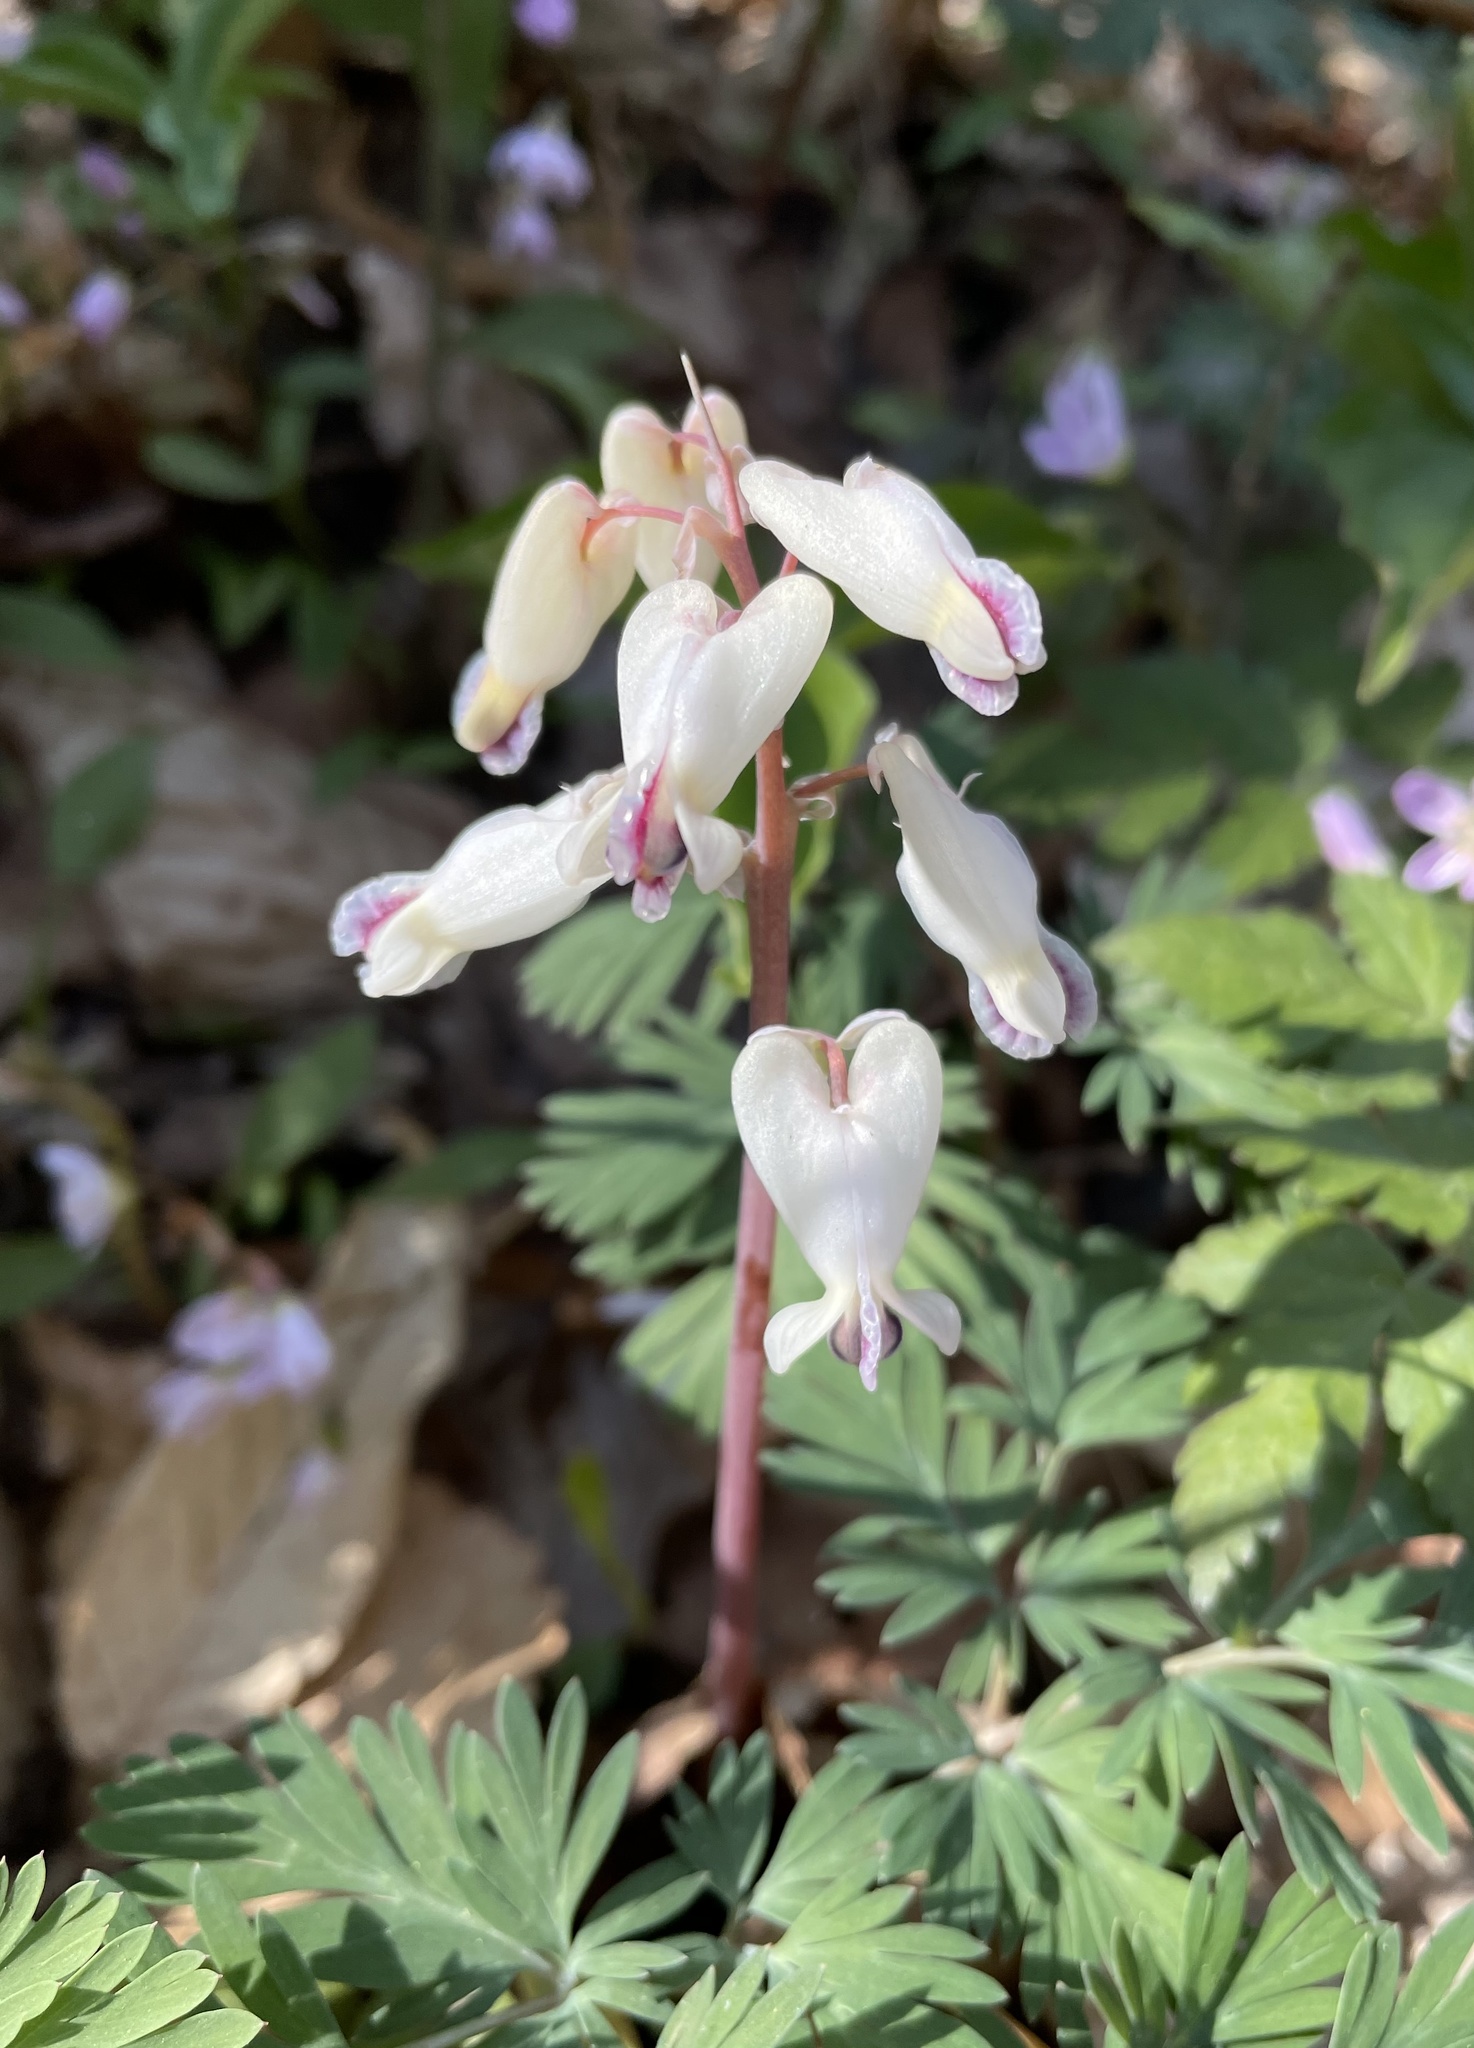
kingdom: Plantae
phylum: Tracheophyta
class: Magnoliopsida
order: Ranunculales
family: Papaveraceae
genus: Dicentra
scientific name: Dicentra canadensis
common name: Squirrel-corn
